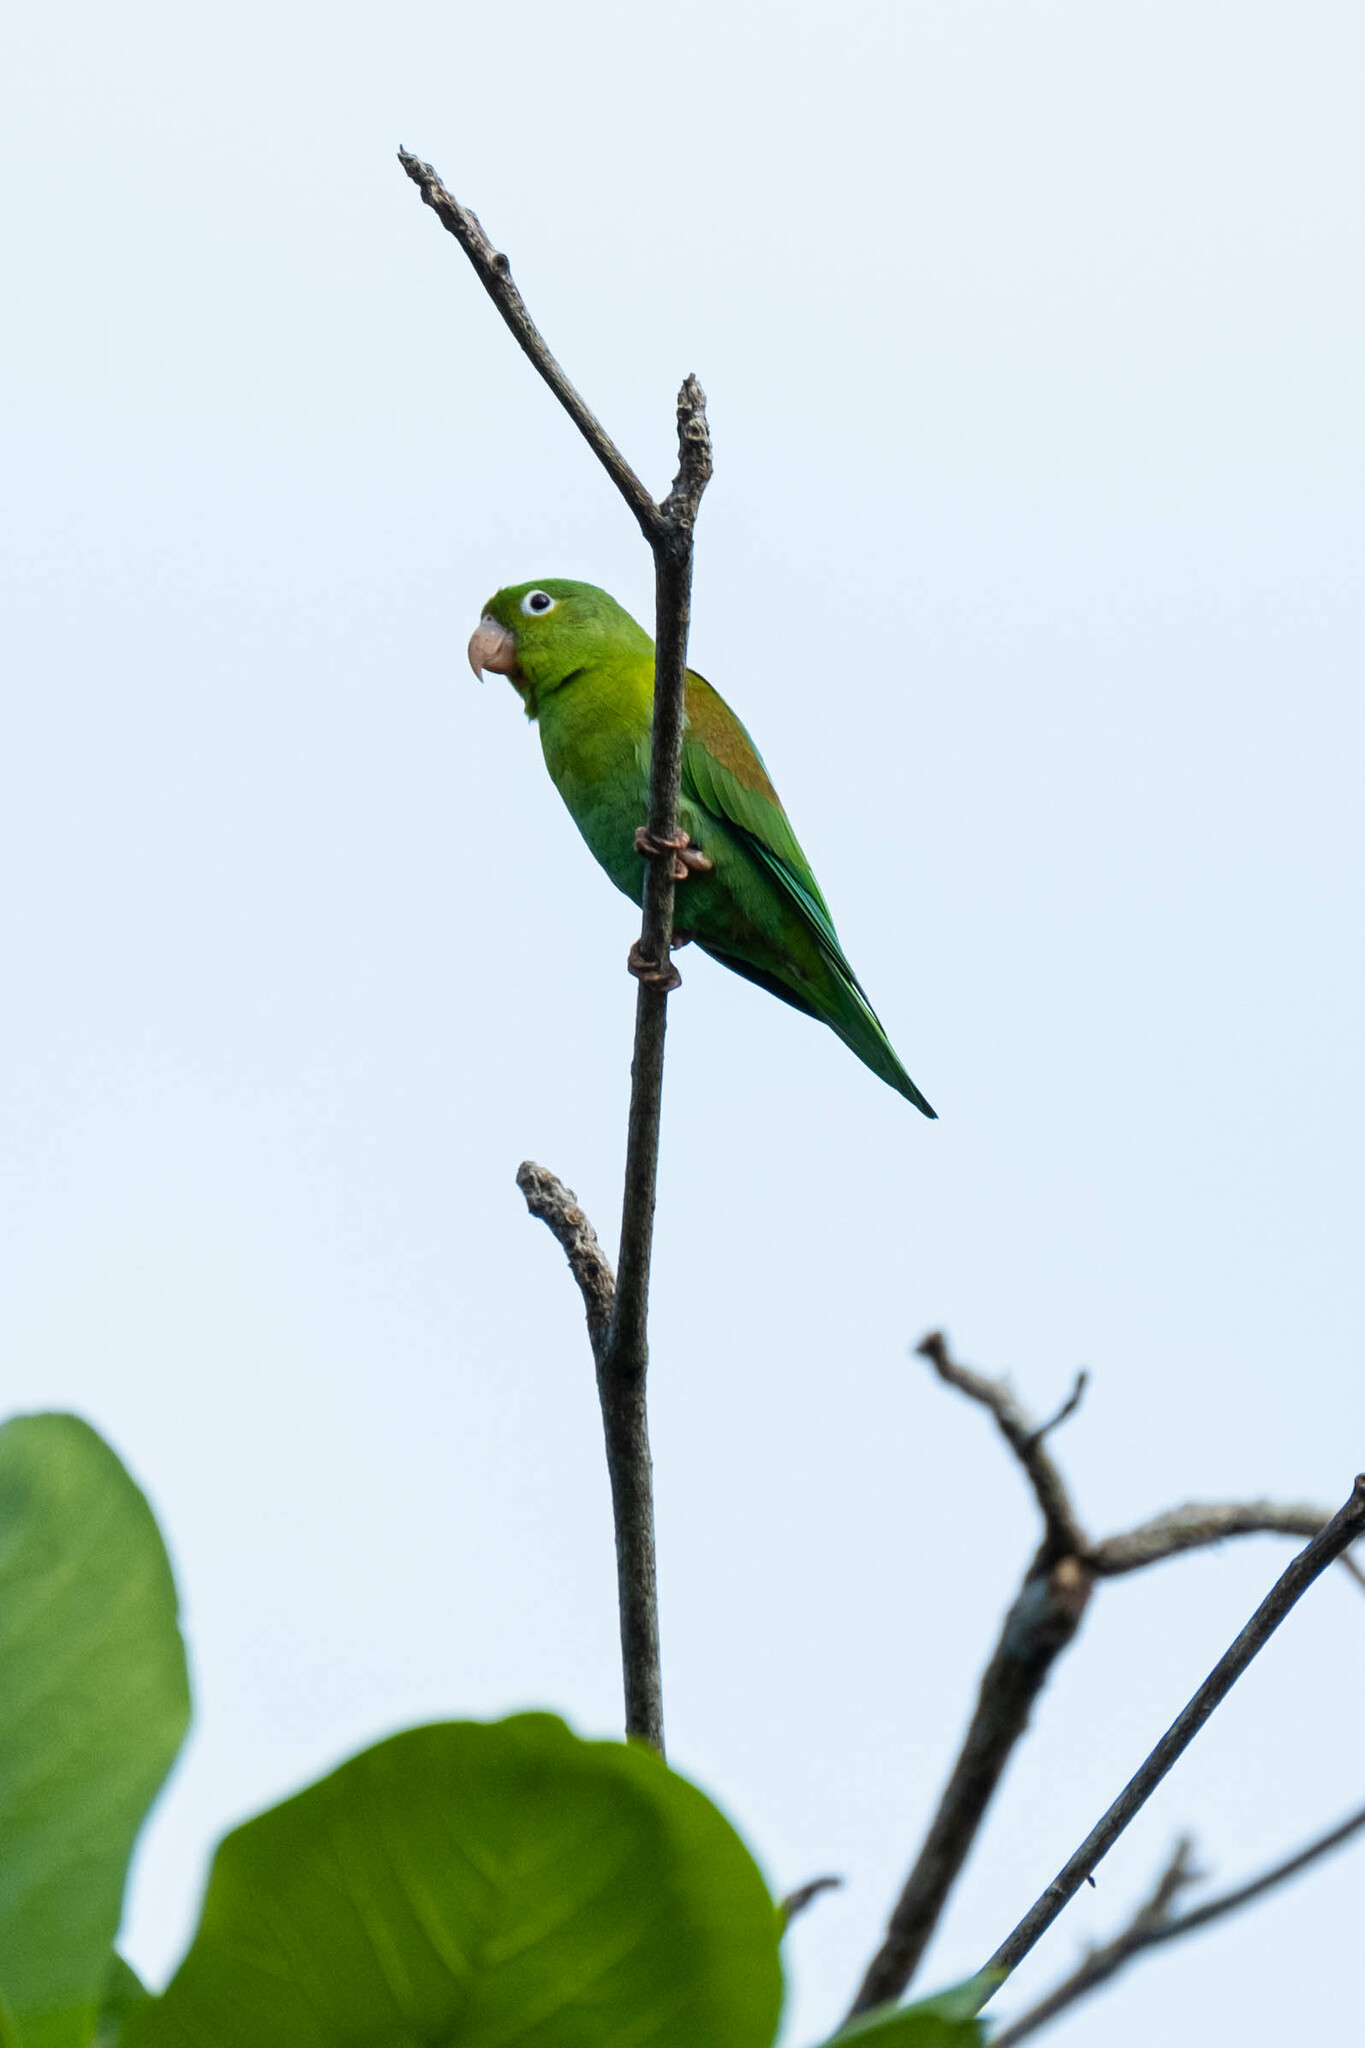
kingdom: Animalia
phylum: Chordata
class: Aves
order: Psittaciformes
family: Psittacidae
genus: Brotogeris
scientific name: Brotogeris jugularis
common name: Orange-chinned parakeet
